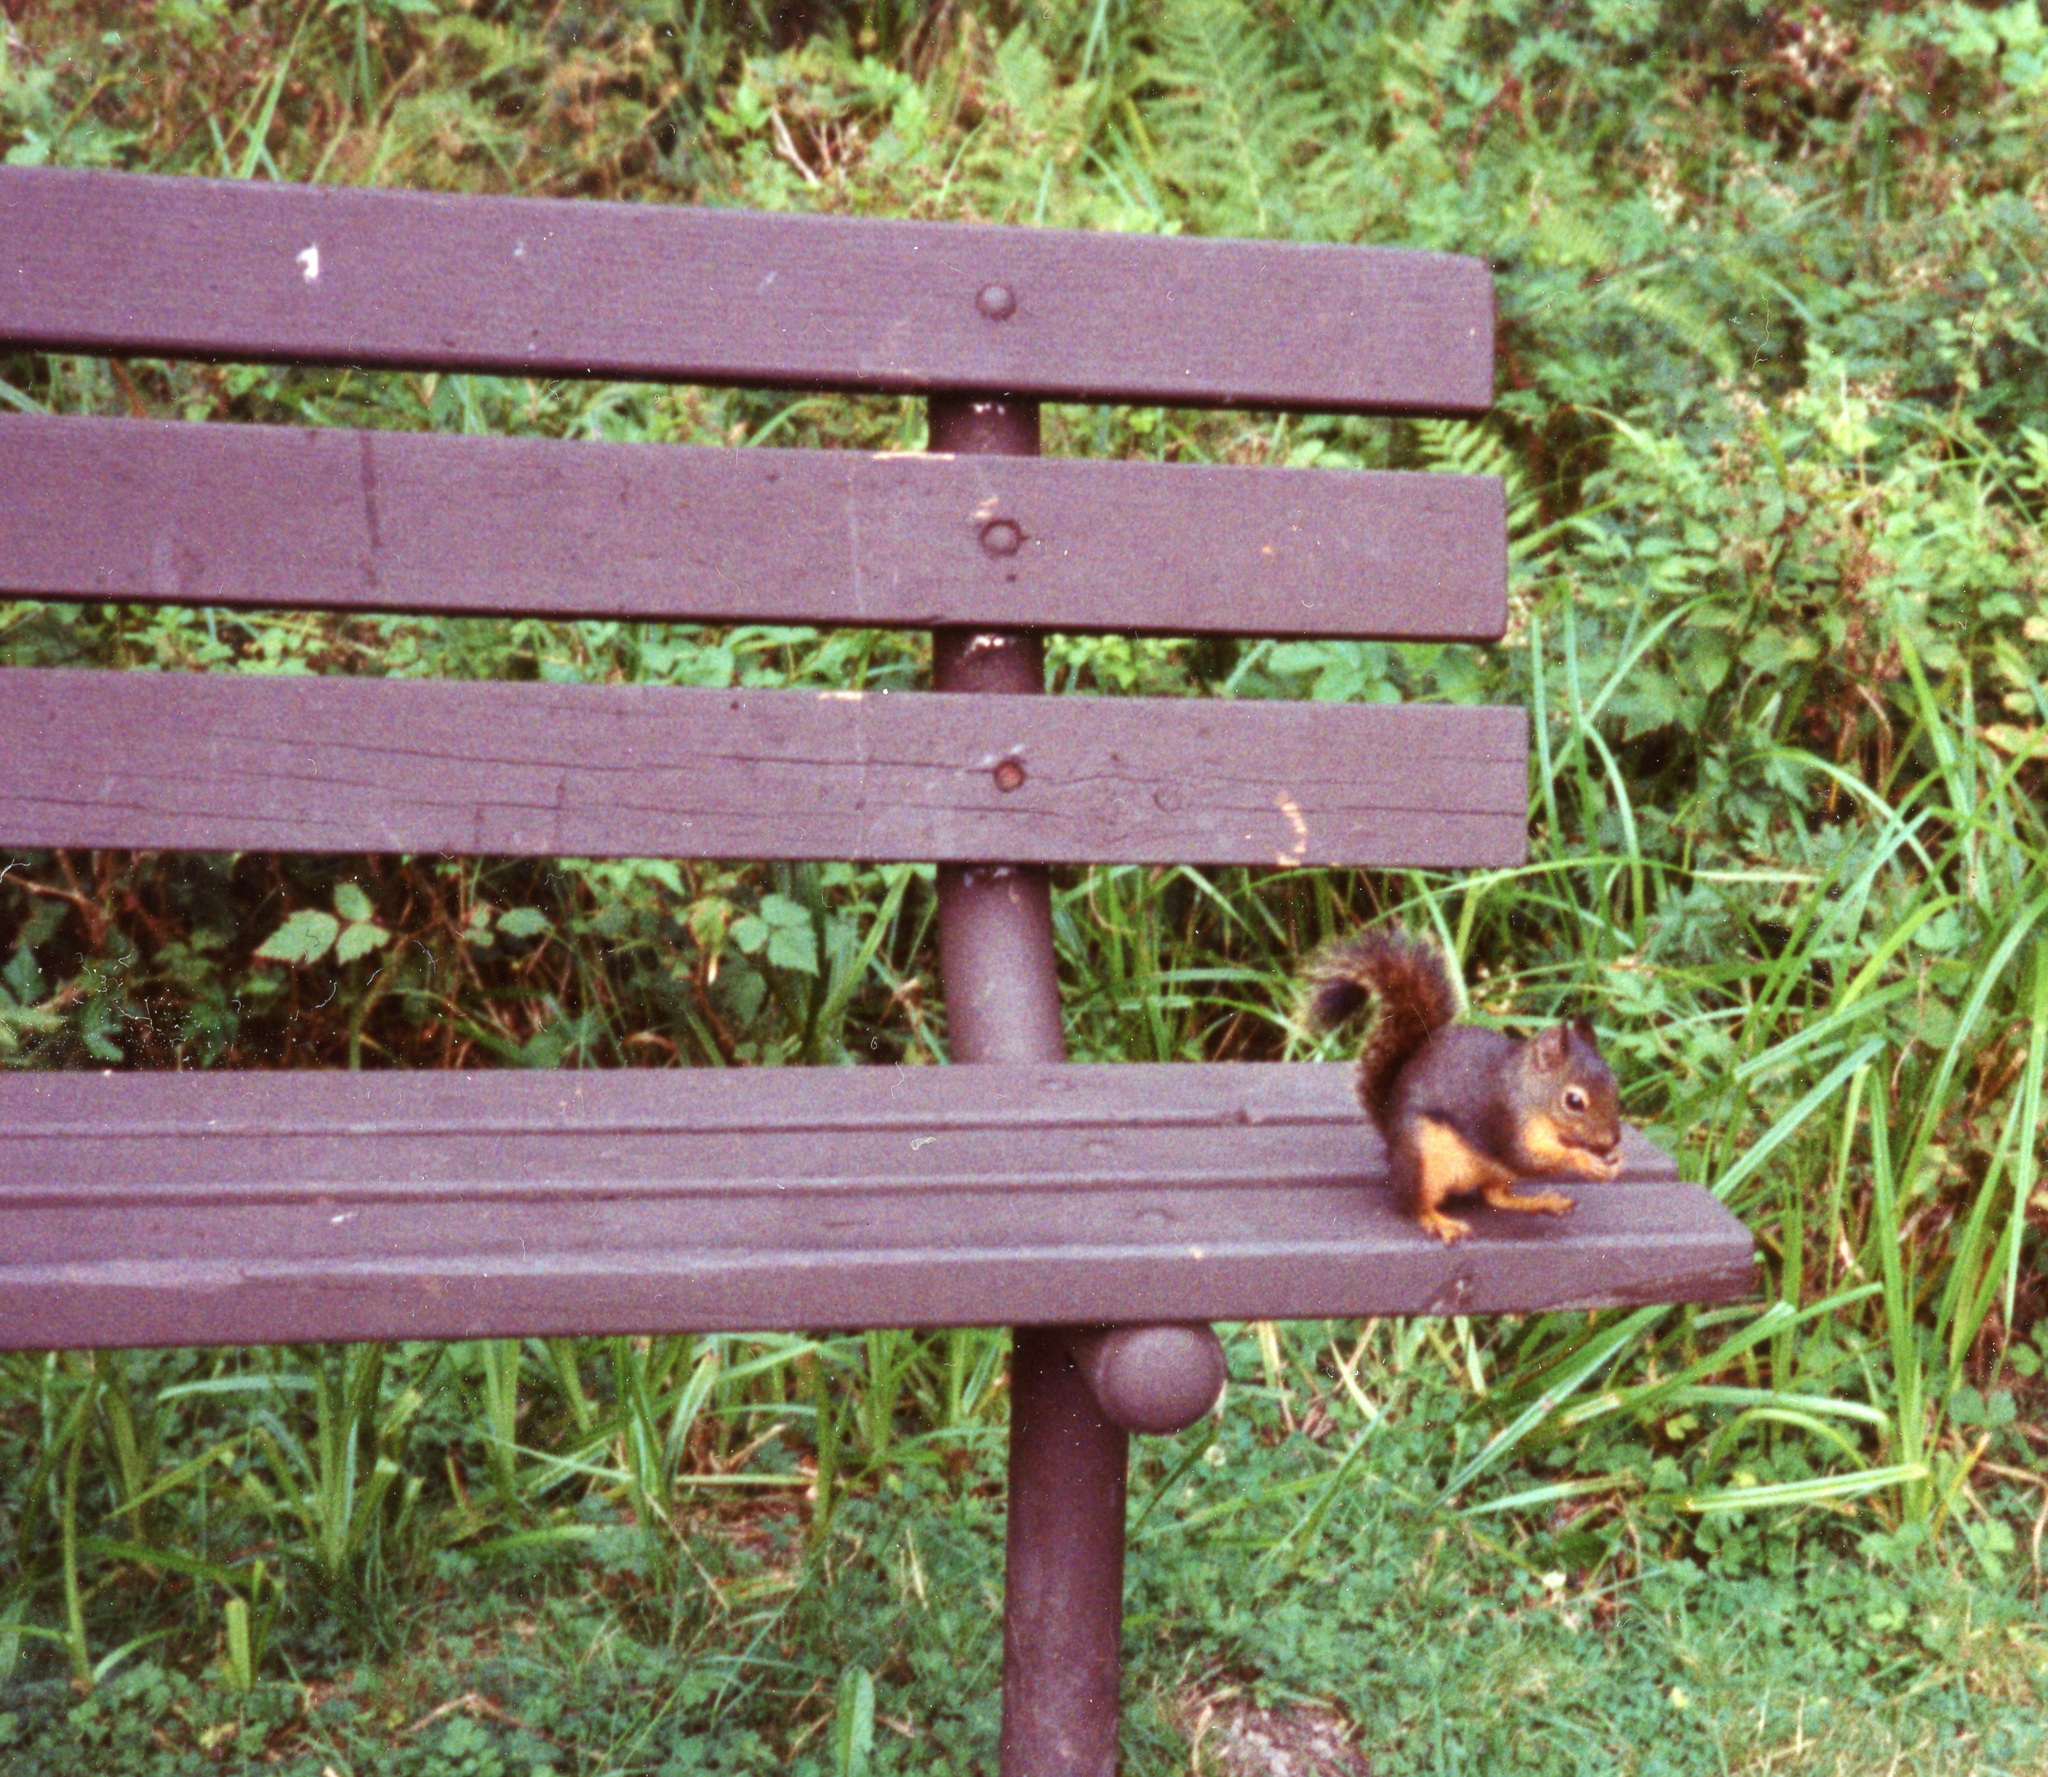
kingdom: Animalia
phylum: Chordata
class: Mammalia
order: Rodentia
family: Sciuridae
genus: Tamiasciurus
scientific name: Tamiasciurus douglasii
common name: Douglas's squirrel
